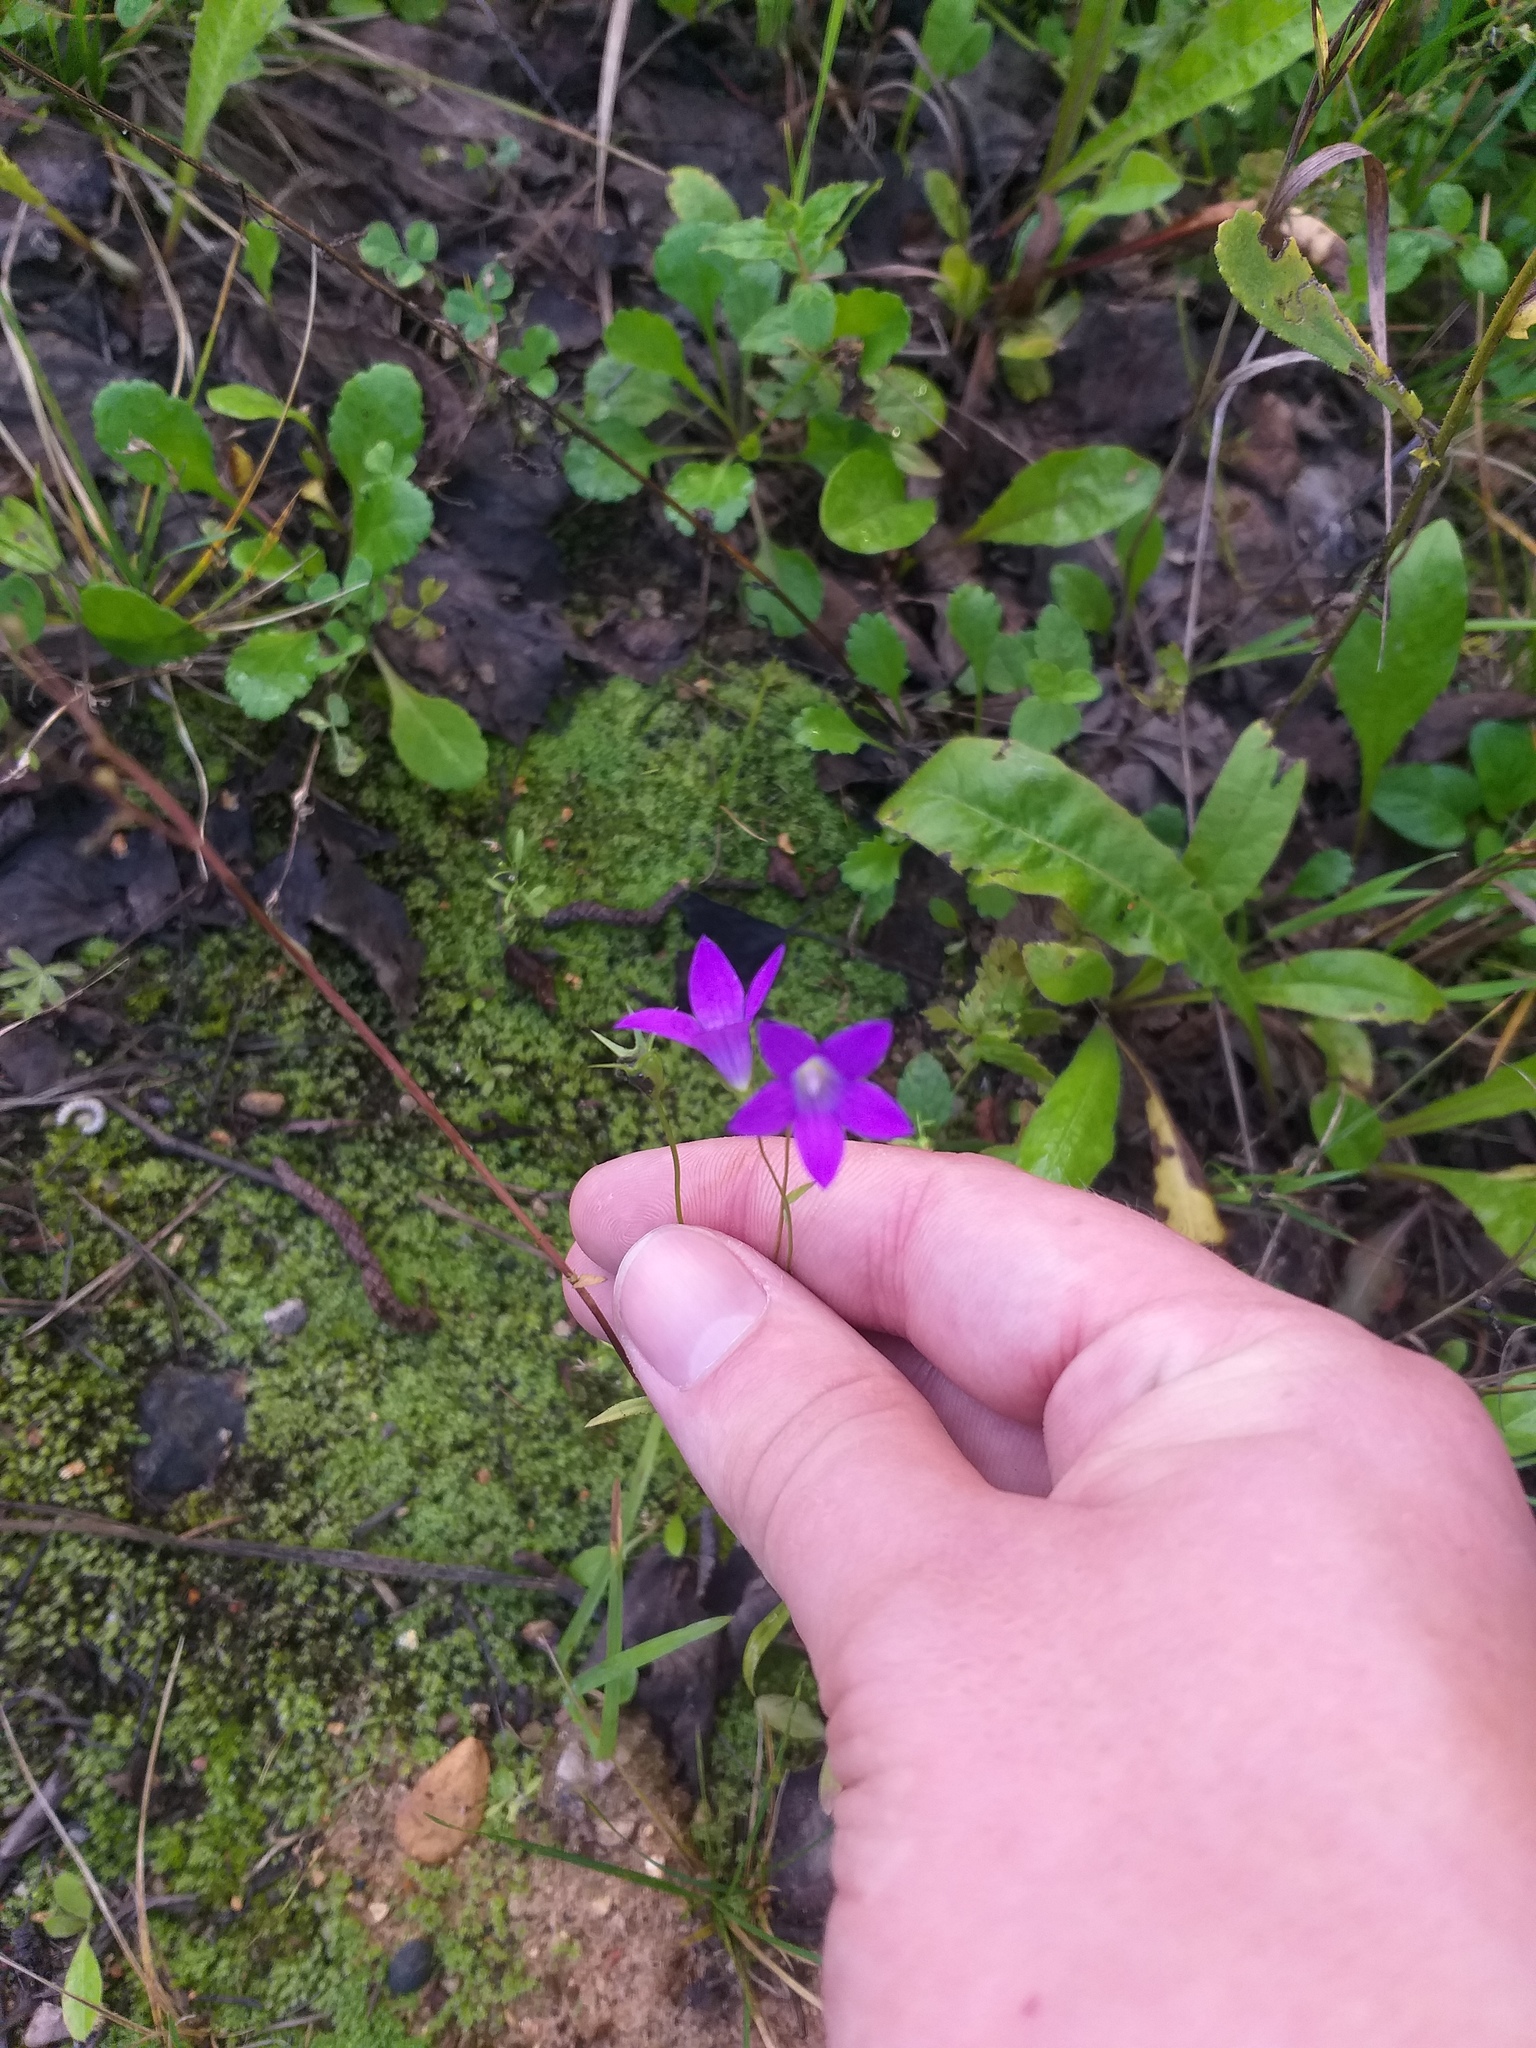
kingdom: Plantae
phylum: Tracheophyta
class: Magnoliopsida
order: Asterales
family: Campanulaceae
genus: Campanula
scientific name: Campanula patula
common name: Spreading bellflower
